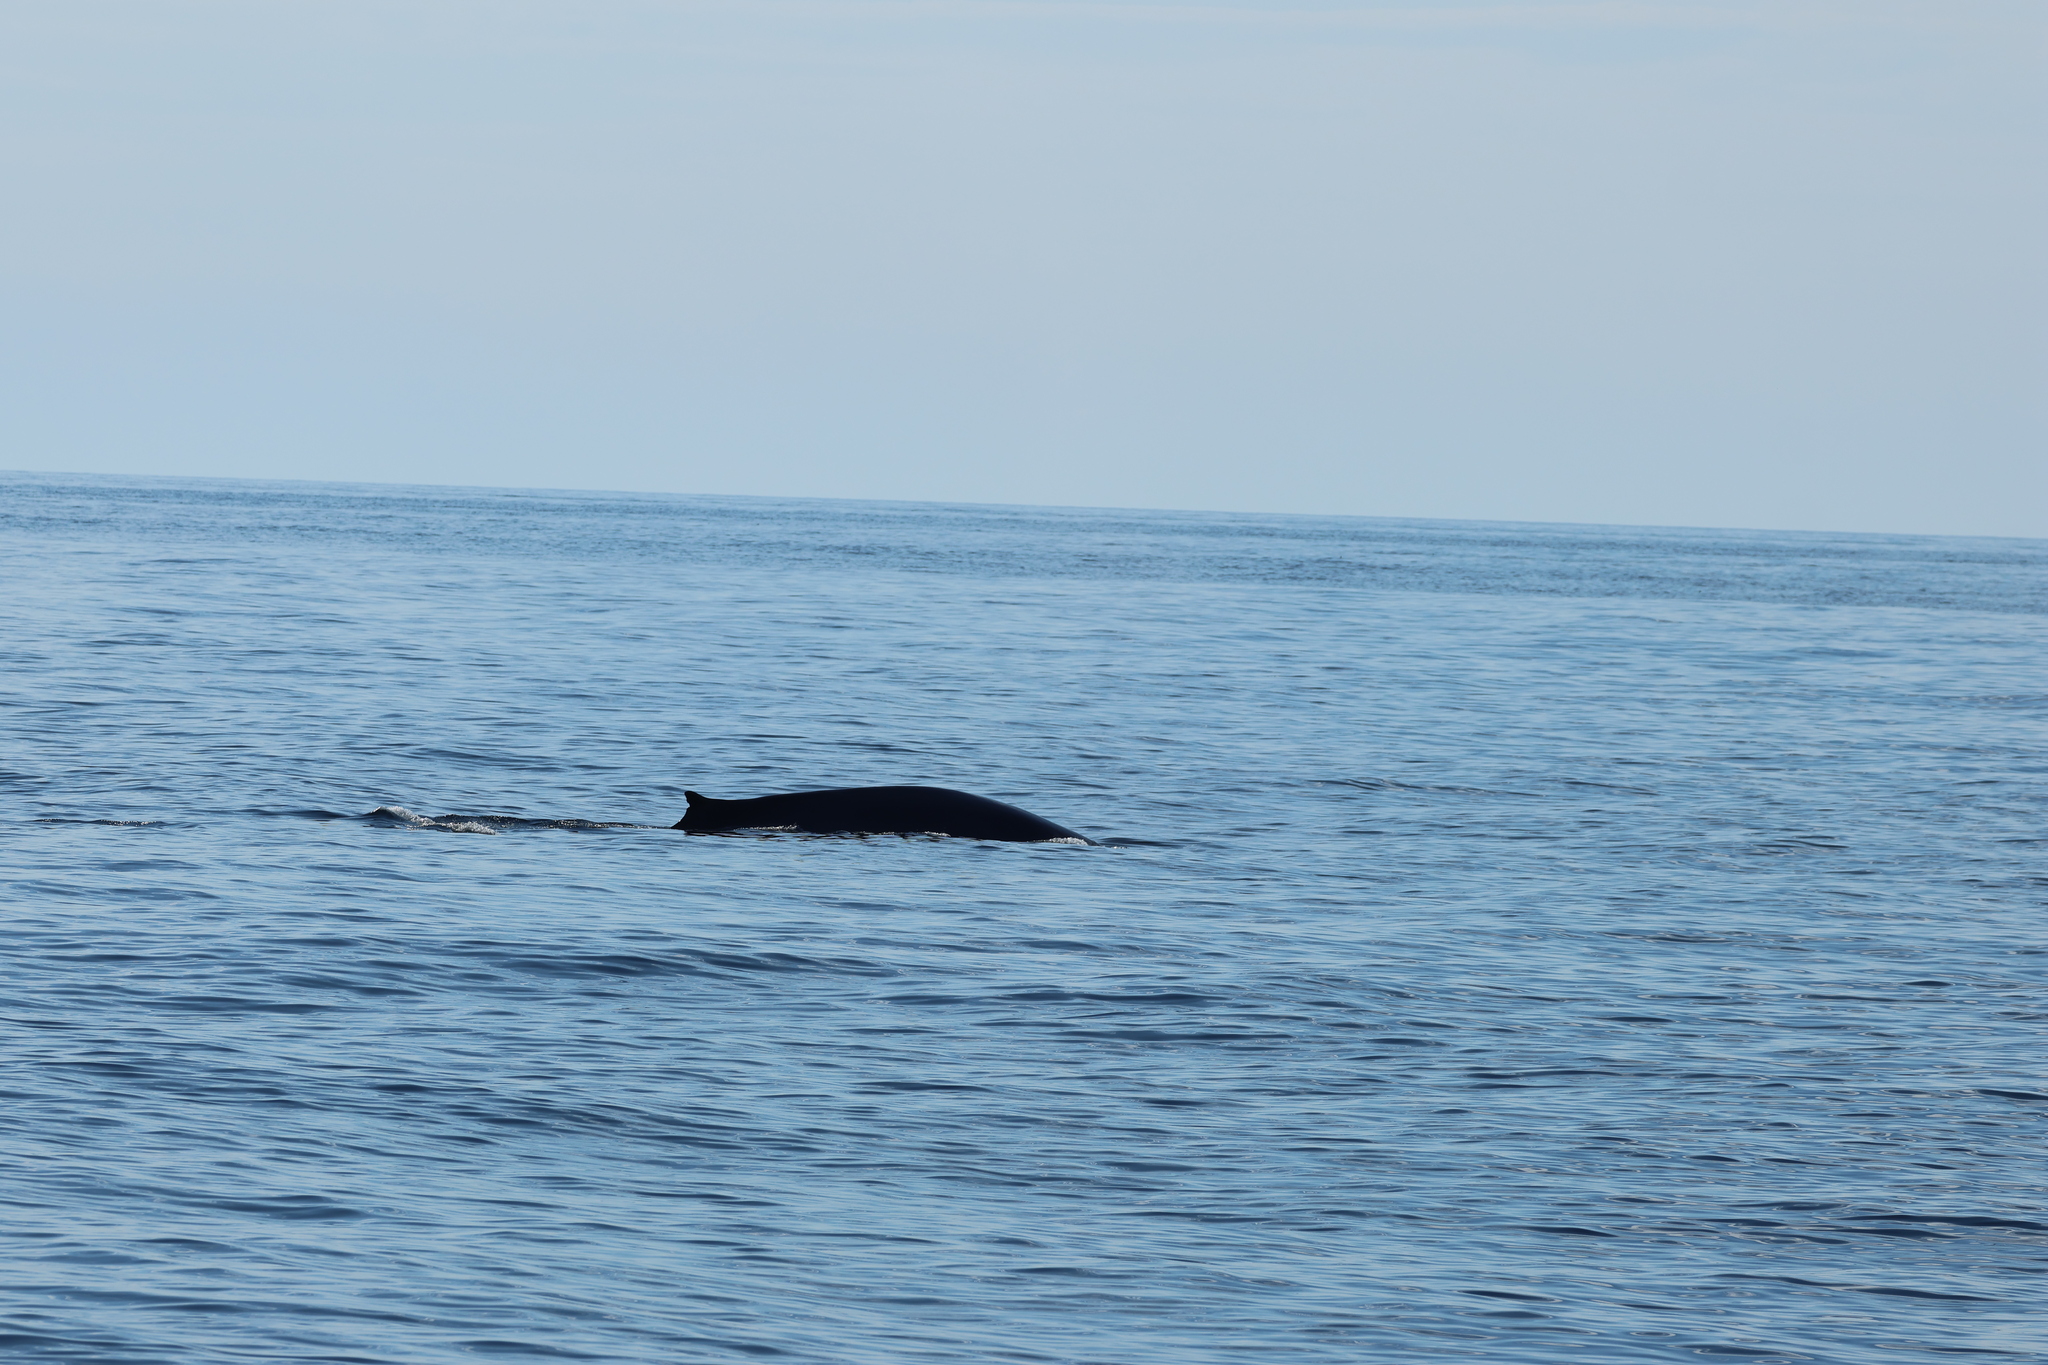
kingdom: Animalia
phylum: Chordata
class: Mammalia
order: Cetacea
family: Balaenopteridae
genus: Balaenoptera
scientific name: Balaenoptera physalus
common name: Fin whale
